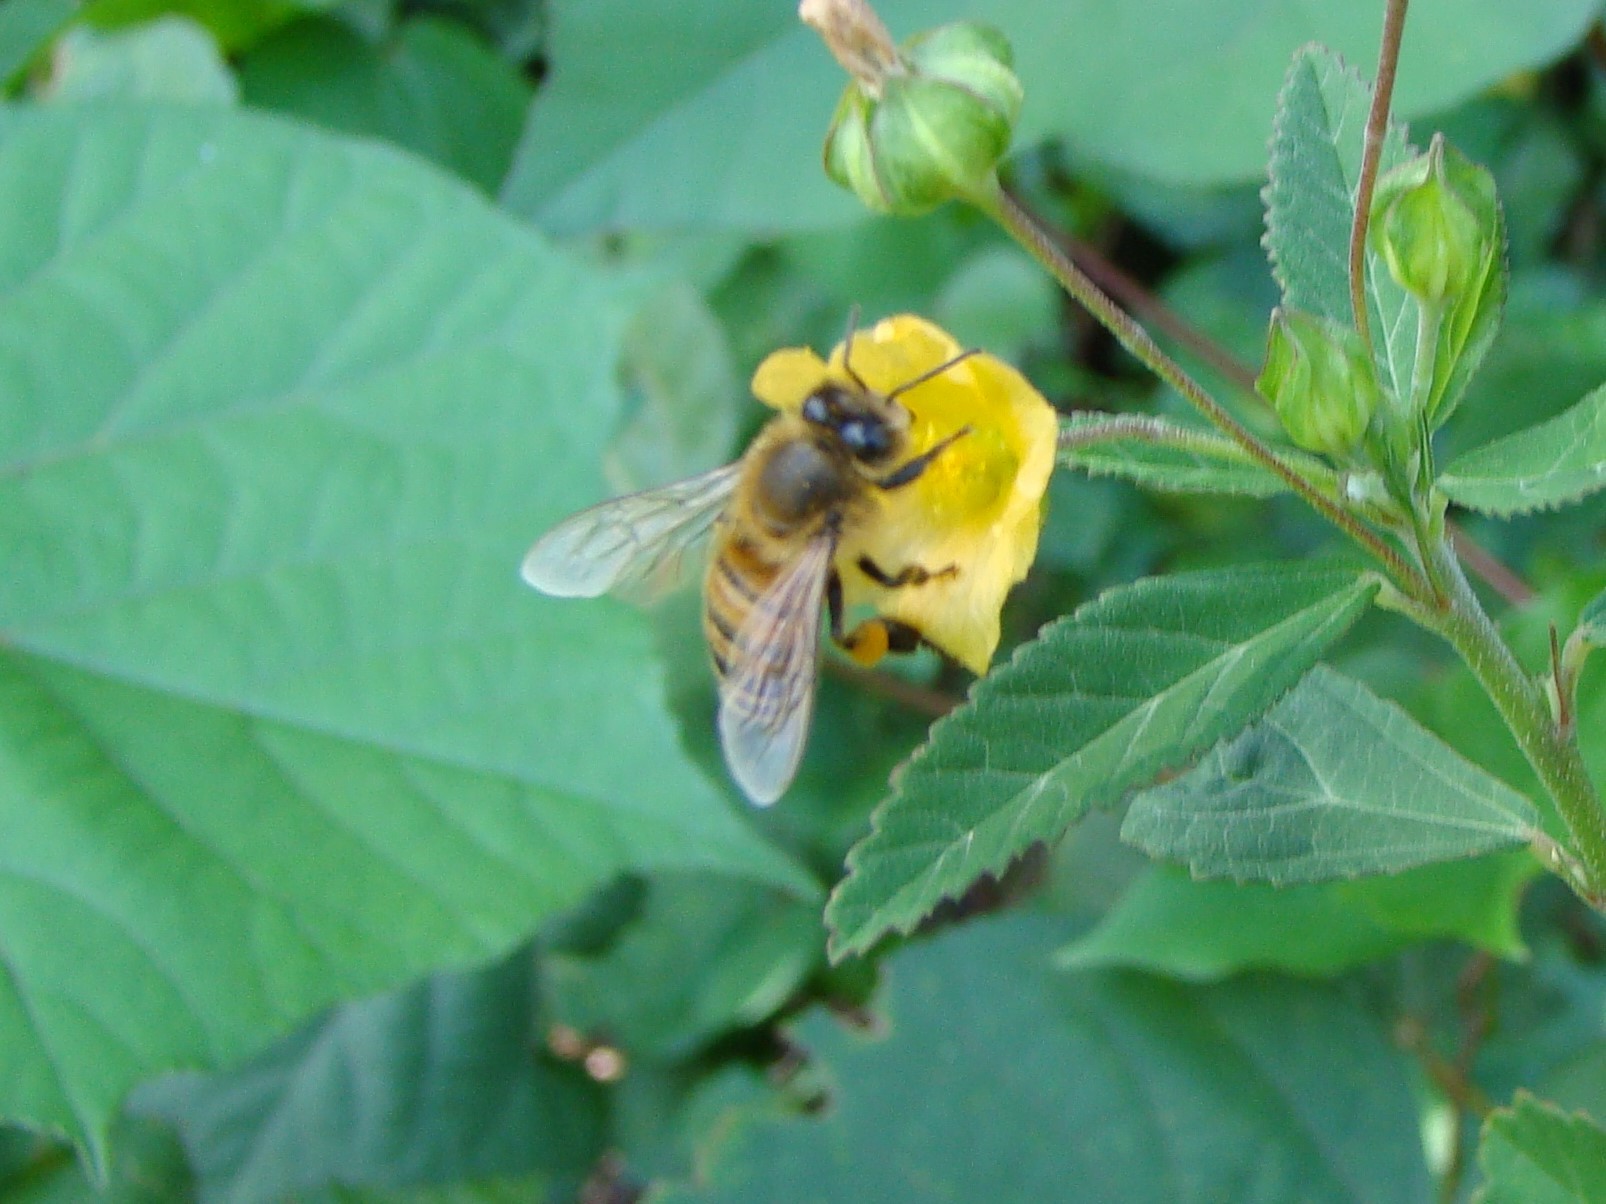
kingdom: Animalia
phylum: Arthropoda
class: Insecta
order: Hymenoptera
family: Apidae
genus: Apis
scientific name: Apis mellifera
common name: Honey bee
